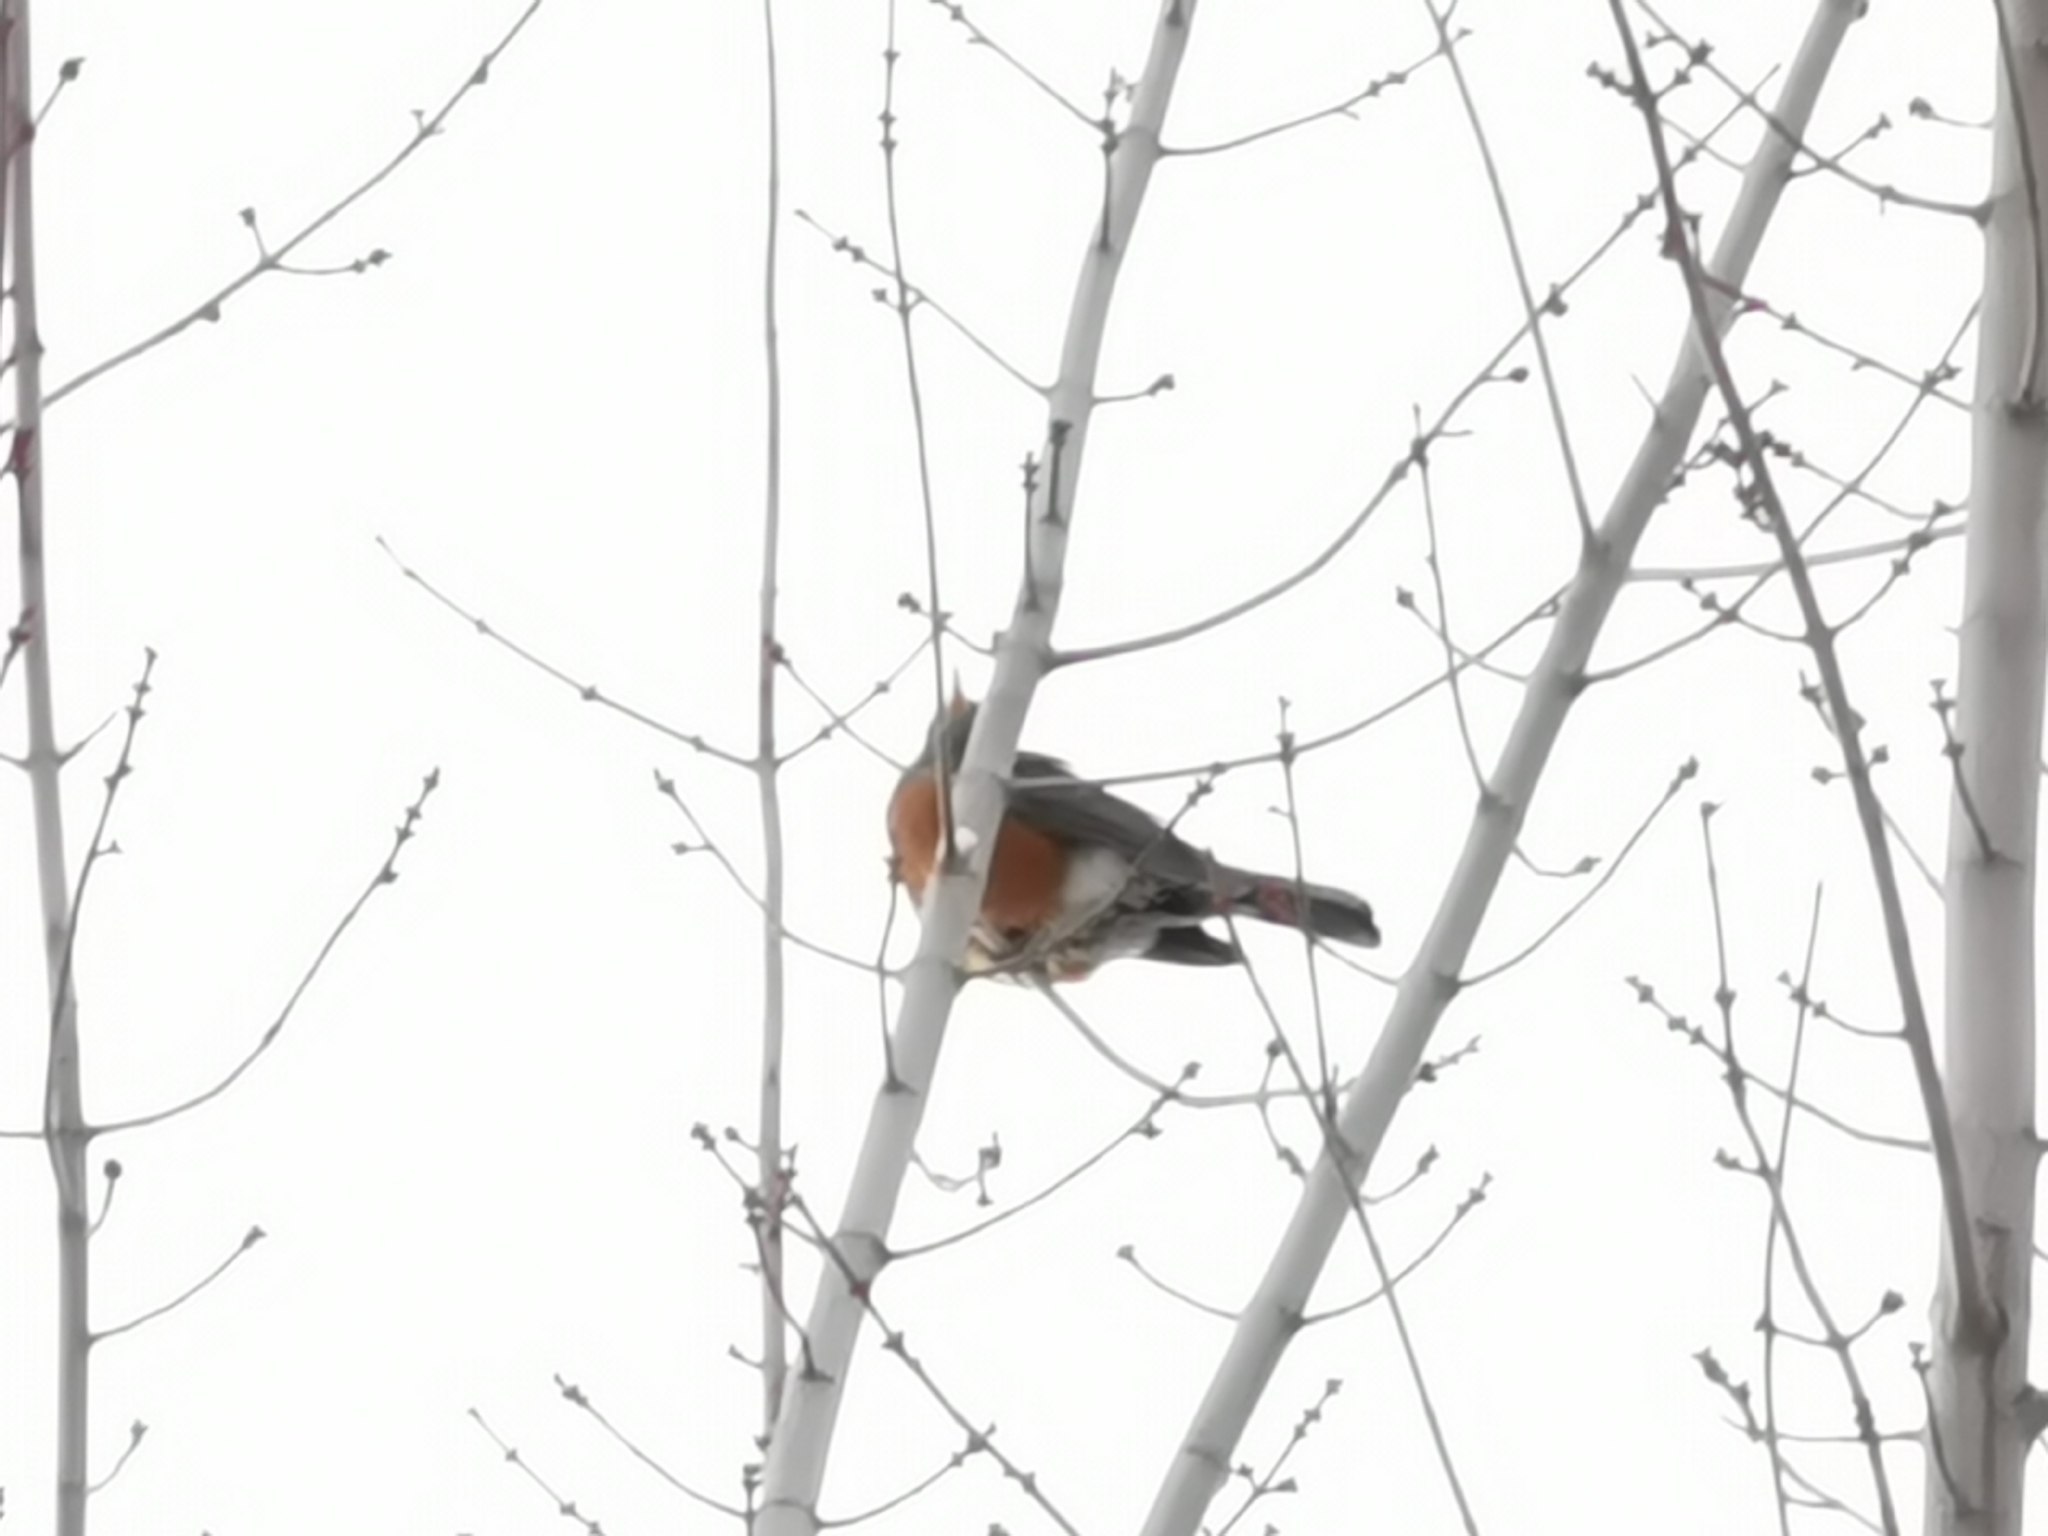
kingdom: Animalia
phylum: Chordata
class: Aves
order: Passeriformes
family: Turdidae
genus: Turdus
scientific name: Turdus migratorius
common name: American robin
